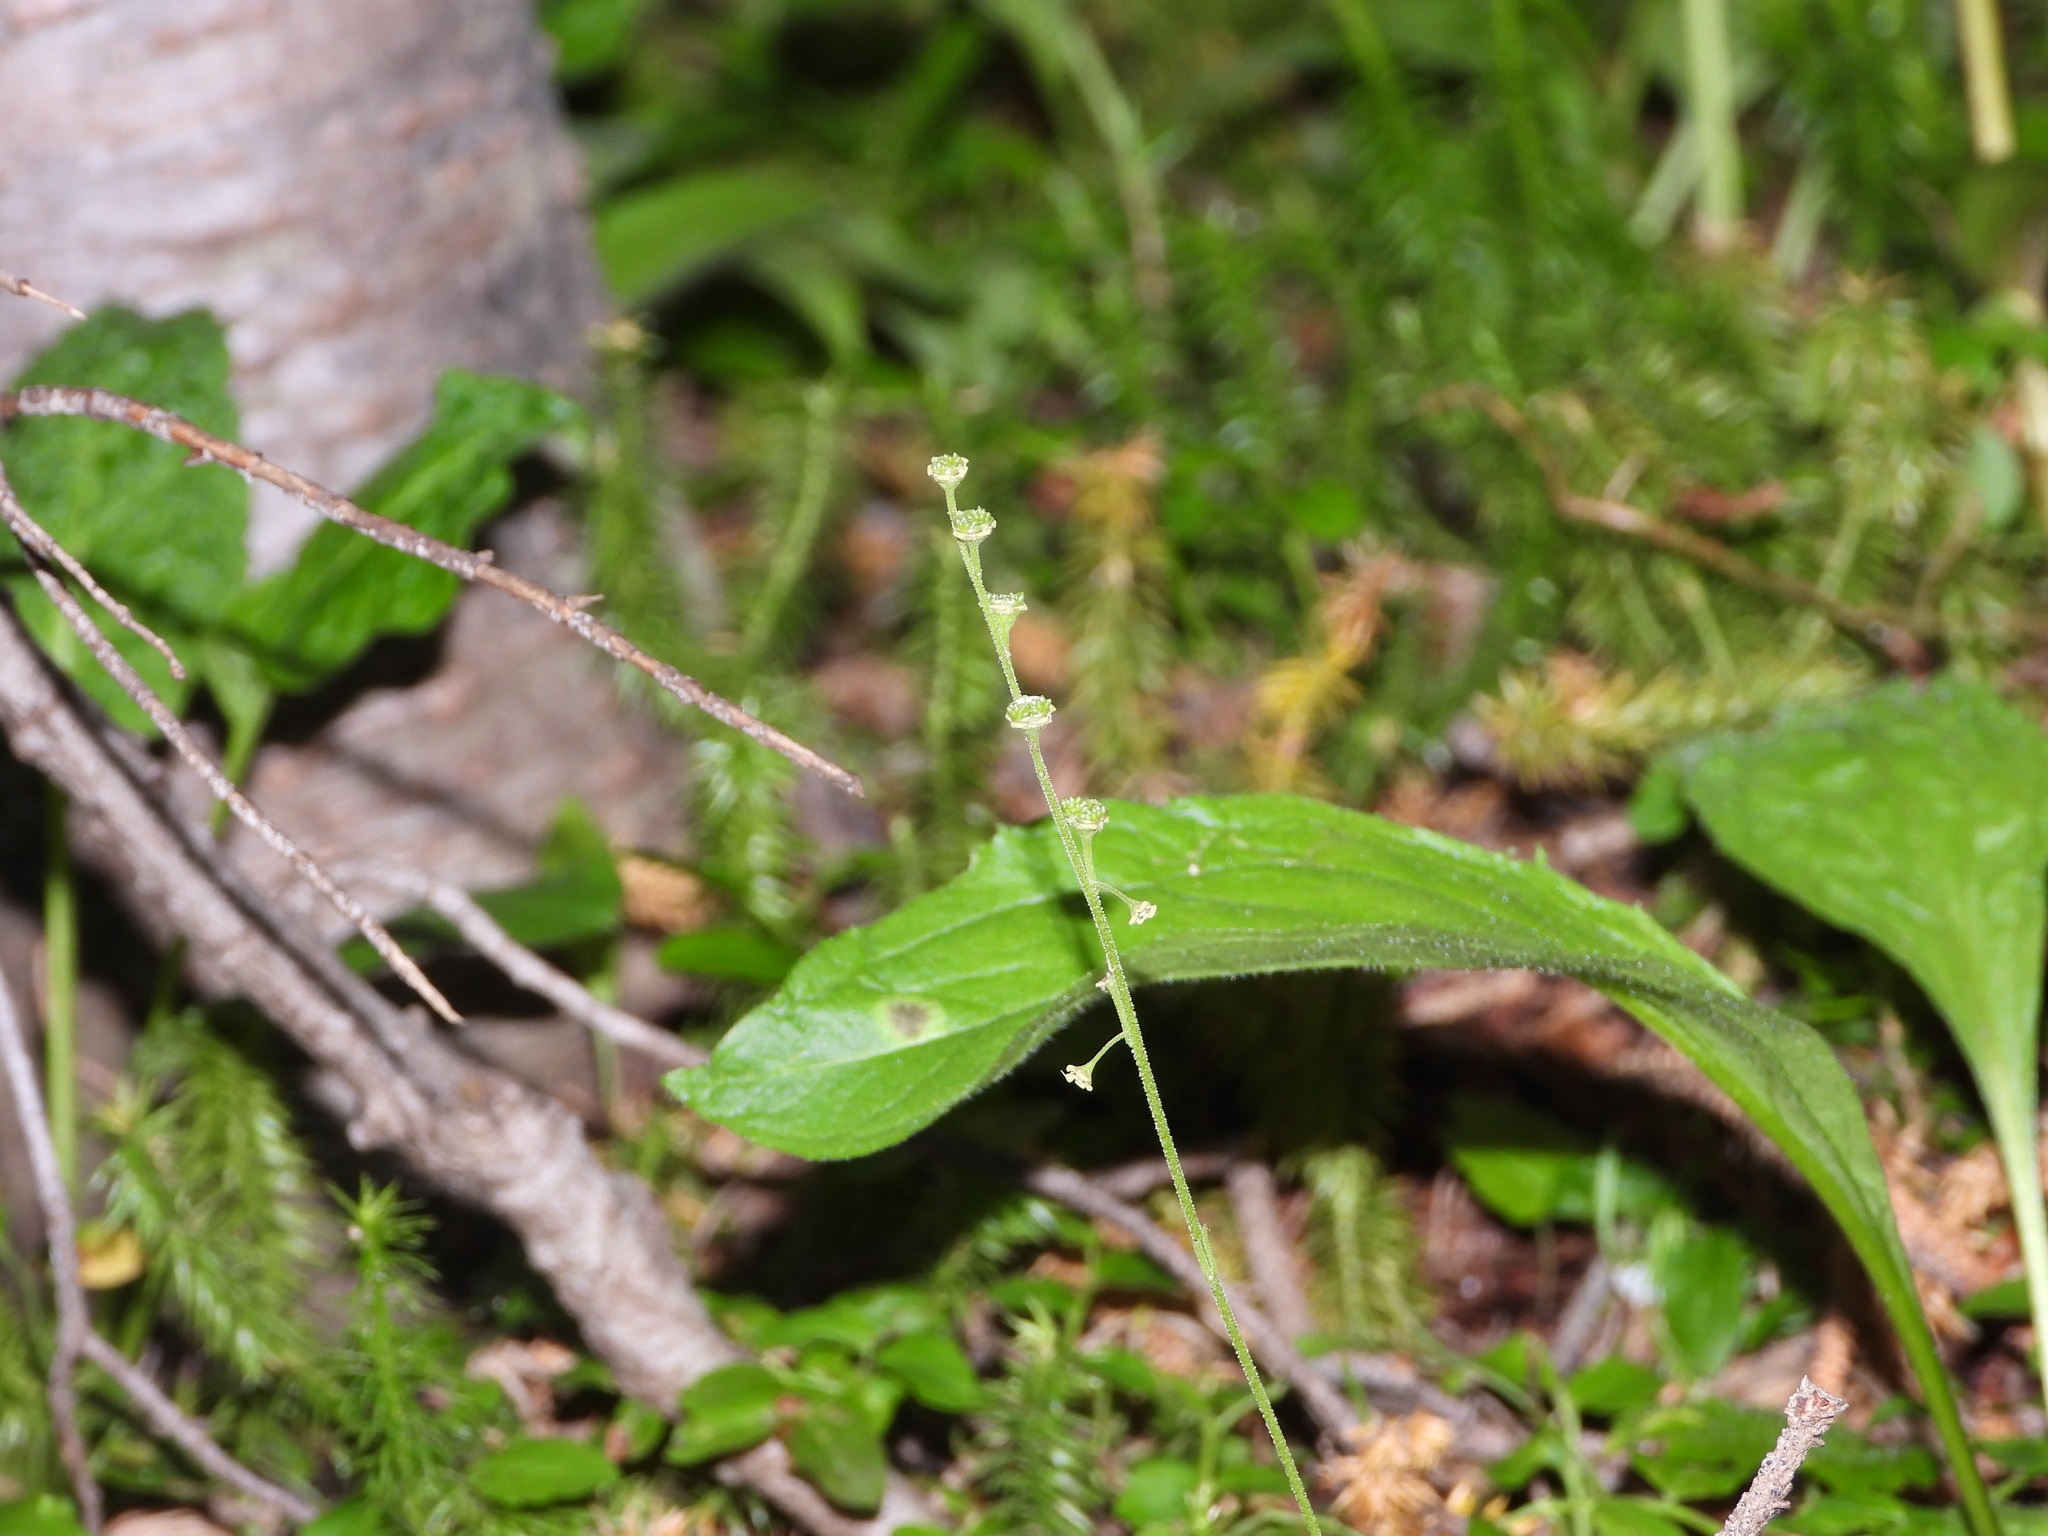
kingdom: Plantae
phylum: Tracheophyta
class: Magnoliopsida
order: Saxifragales
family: Saxifragaceae
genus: Pectiantia
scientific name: Pectiantia pentandra
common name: Alpine bishop's-cap
